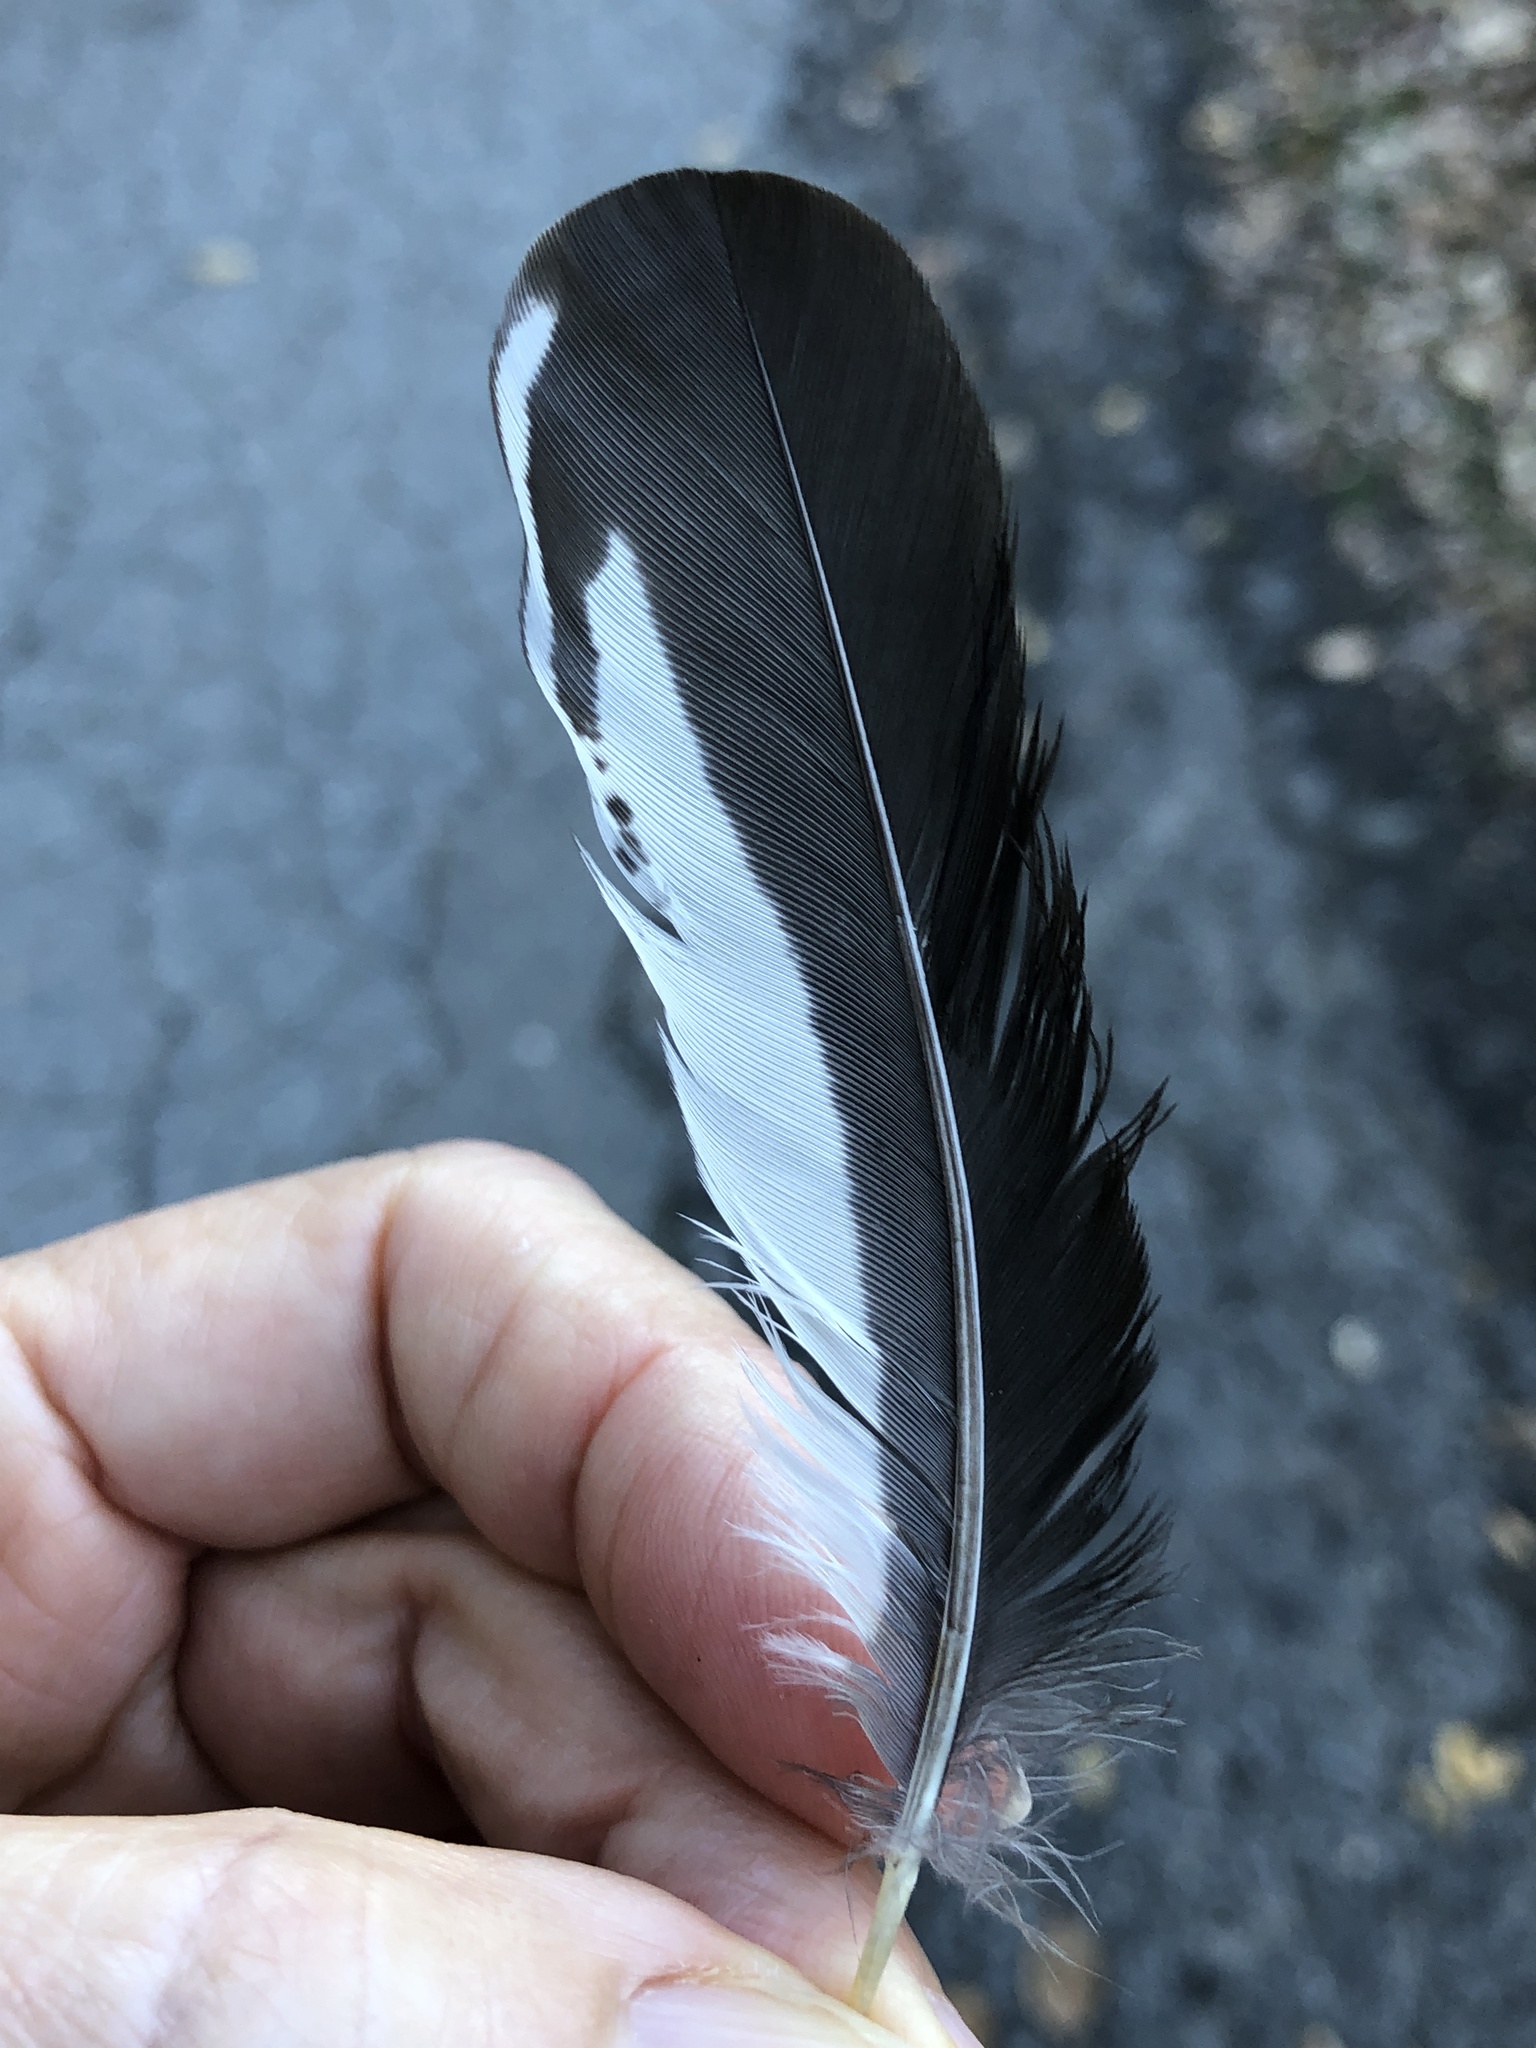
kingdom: Animalia
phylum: Chordata
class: Aves
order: Piciformes
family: Picidae
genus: Melanerpes
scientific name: Melanerpes formicivorus
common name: Acorn woodpecker
